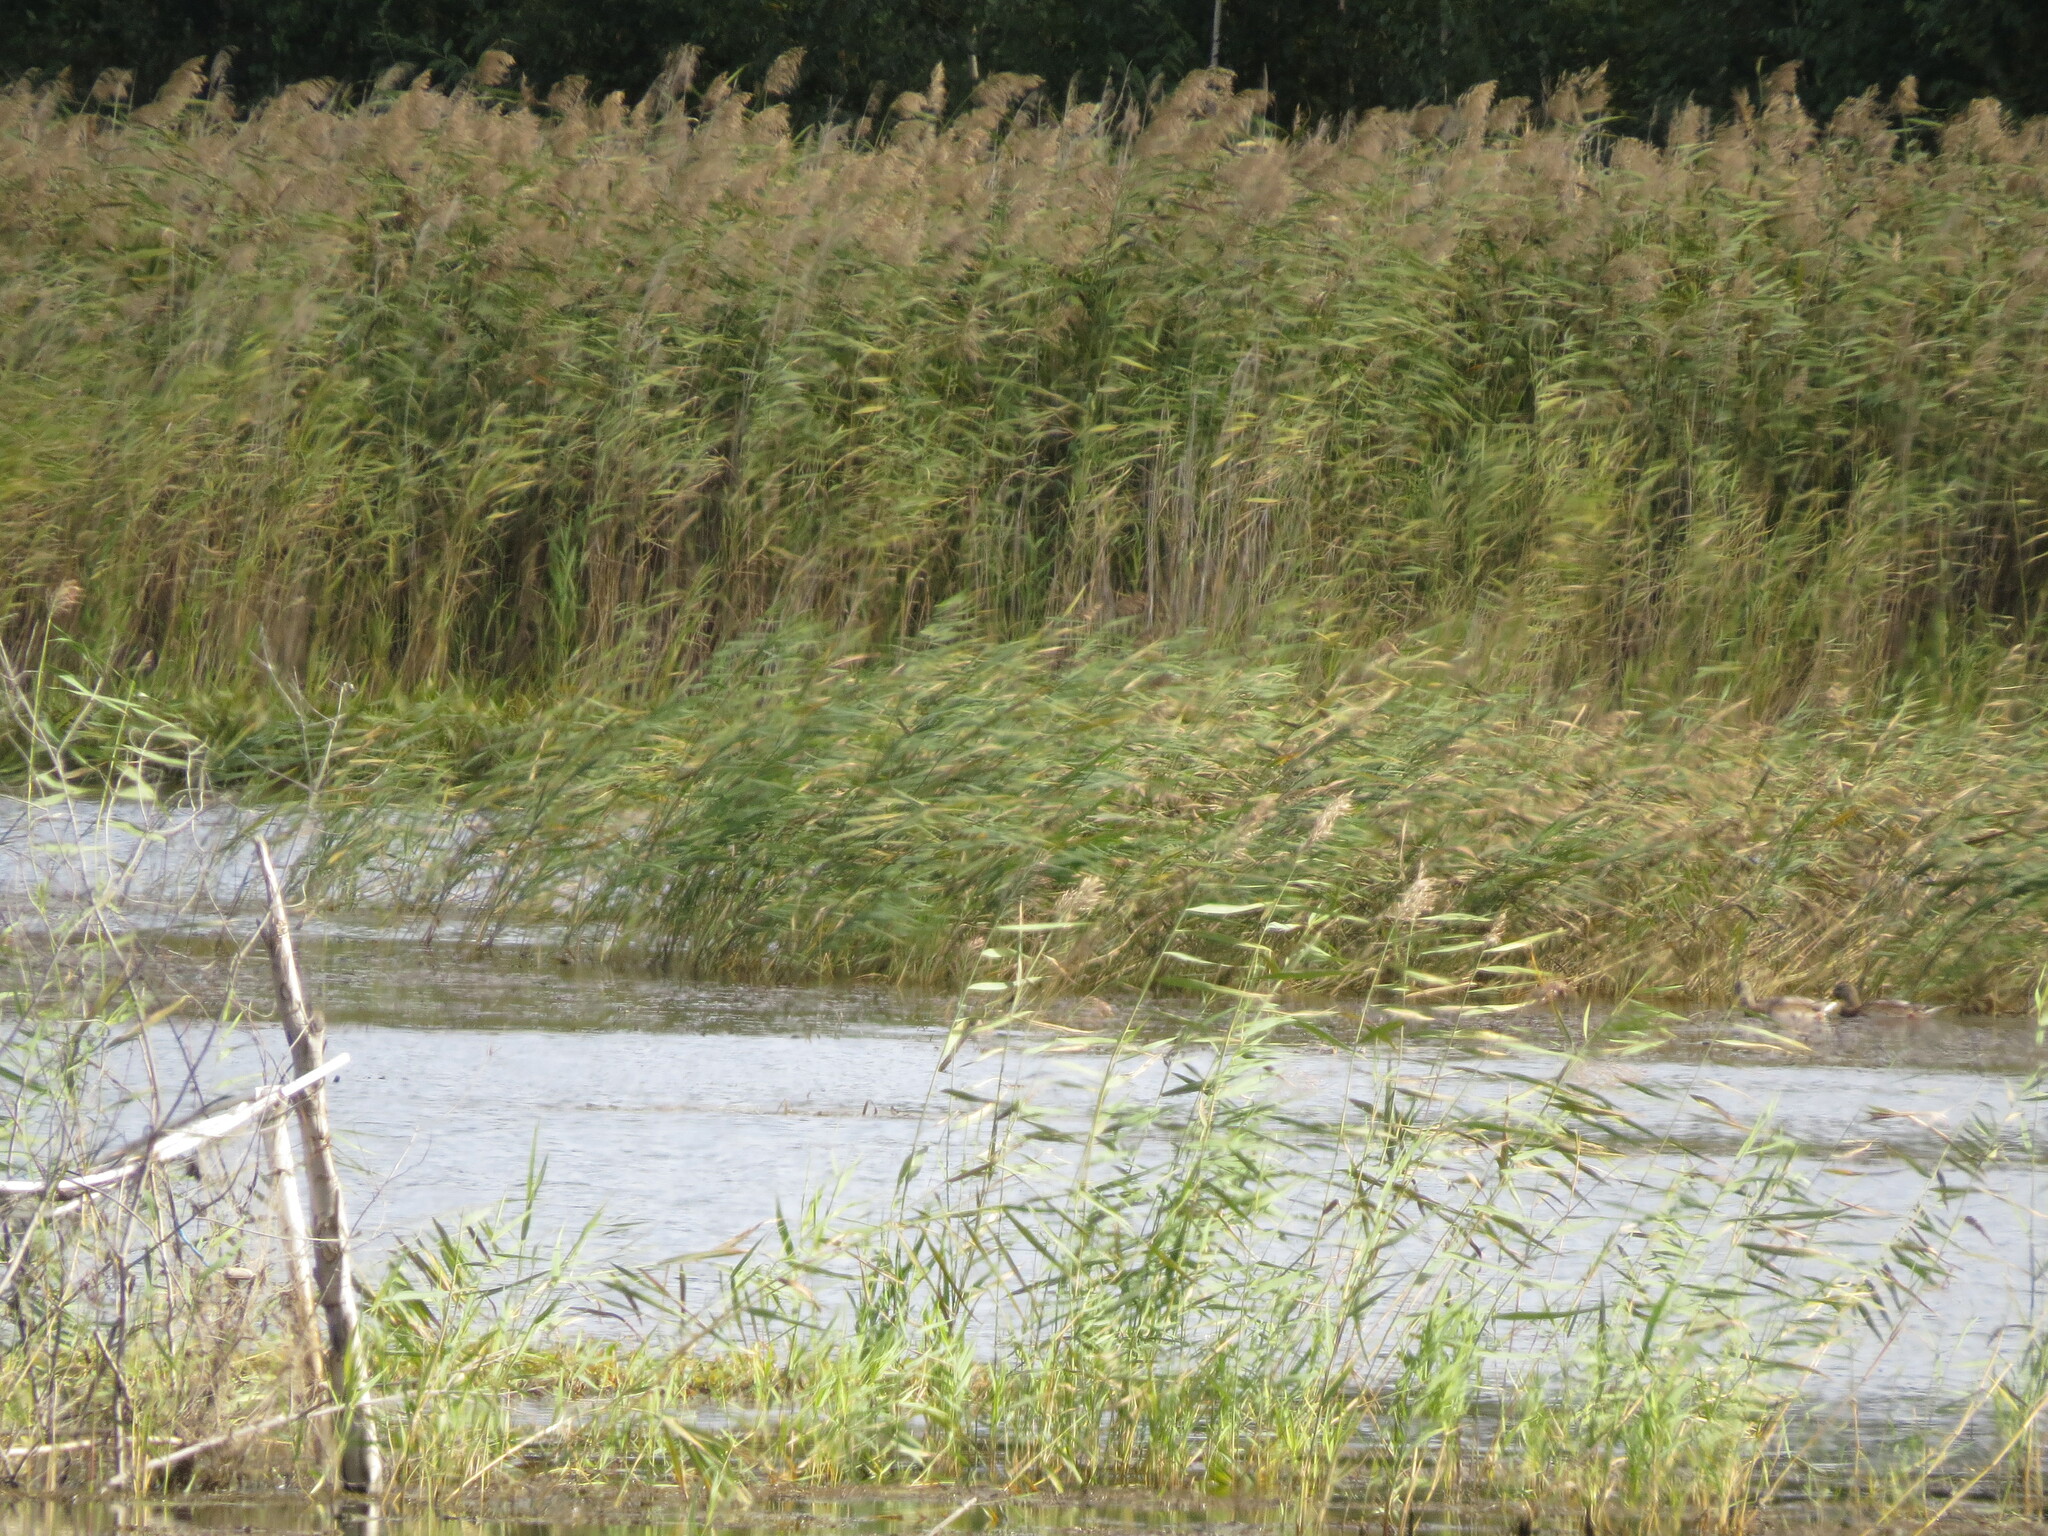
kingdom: Animalia
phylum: Chordata
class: Aves
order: Anseriformes
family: Anatidae
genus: Mareca
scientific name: Mareca strepera
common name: Gadwall
